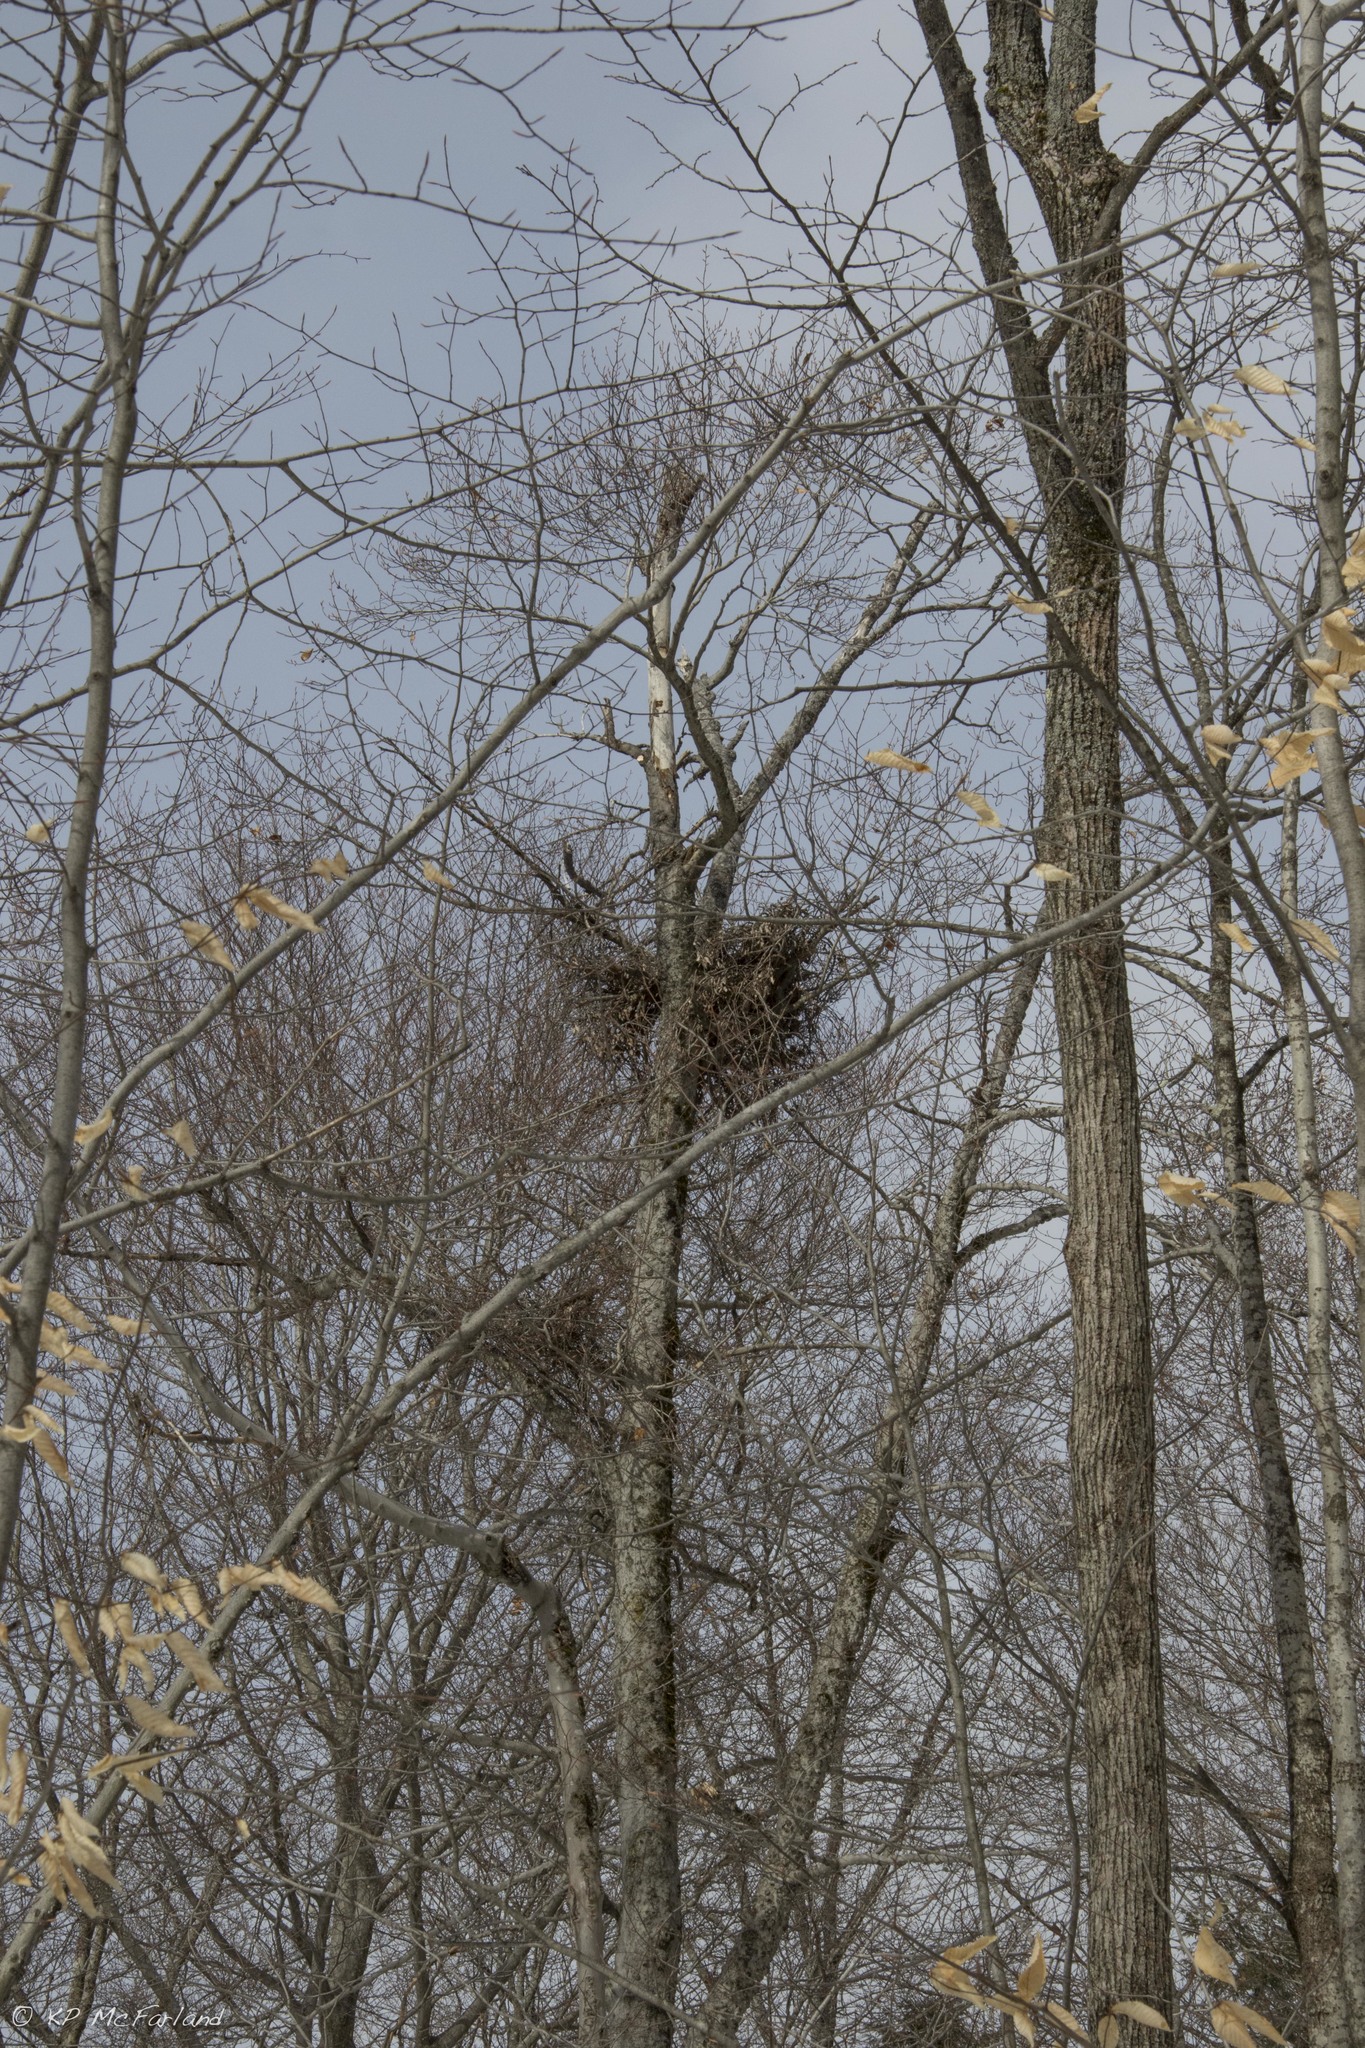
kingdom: Plantae
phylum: Tracheophyta
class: Magnoliopsida
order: Fagales
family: Fagaceae
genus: Fagus
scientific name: Fagus grandifolia
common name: American beech
